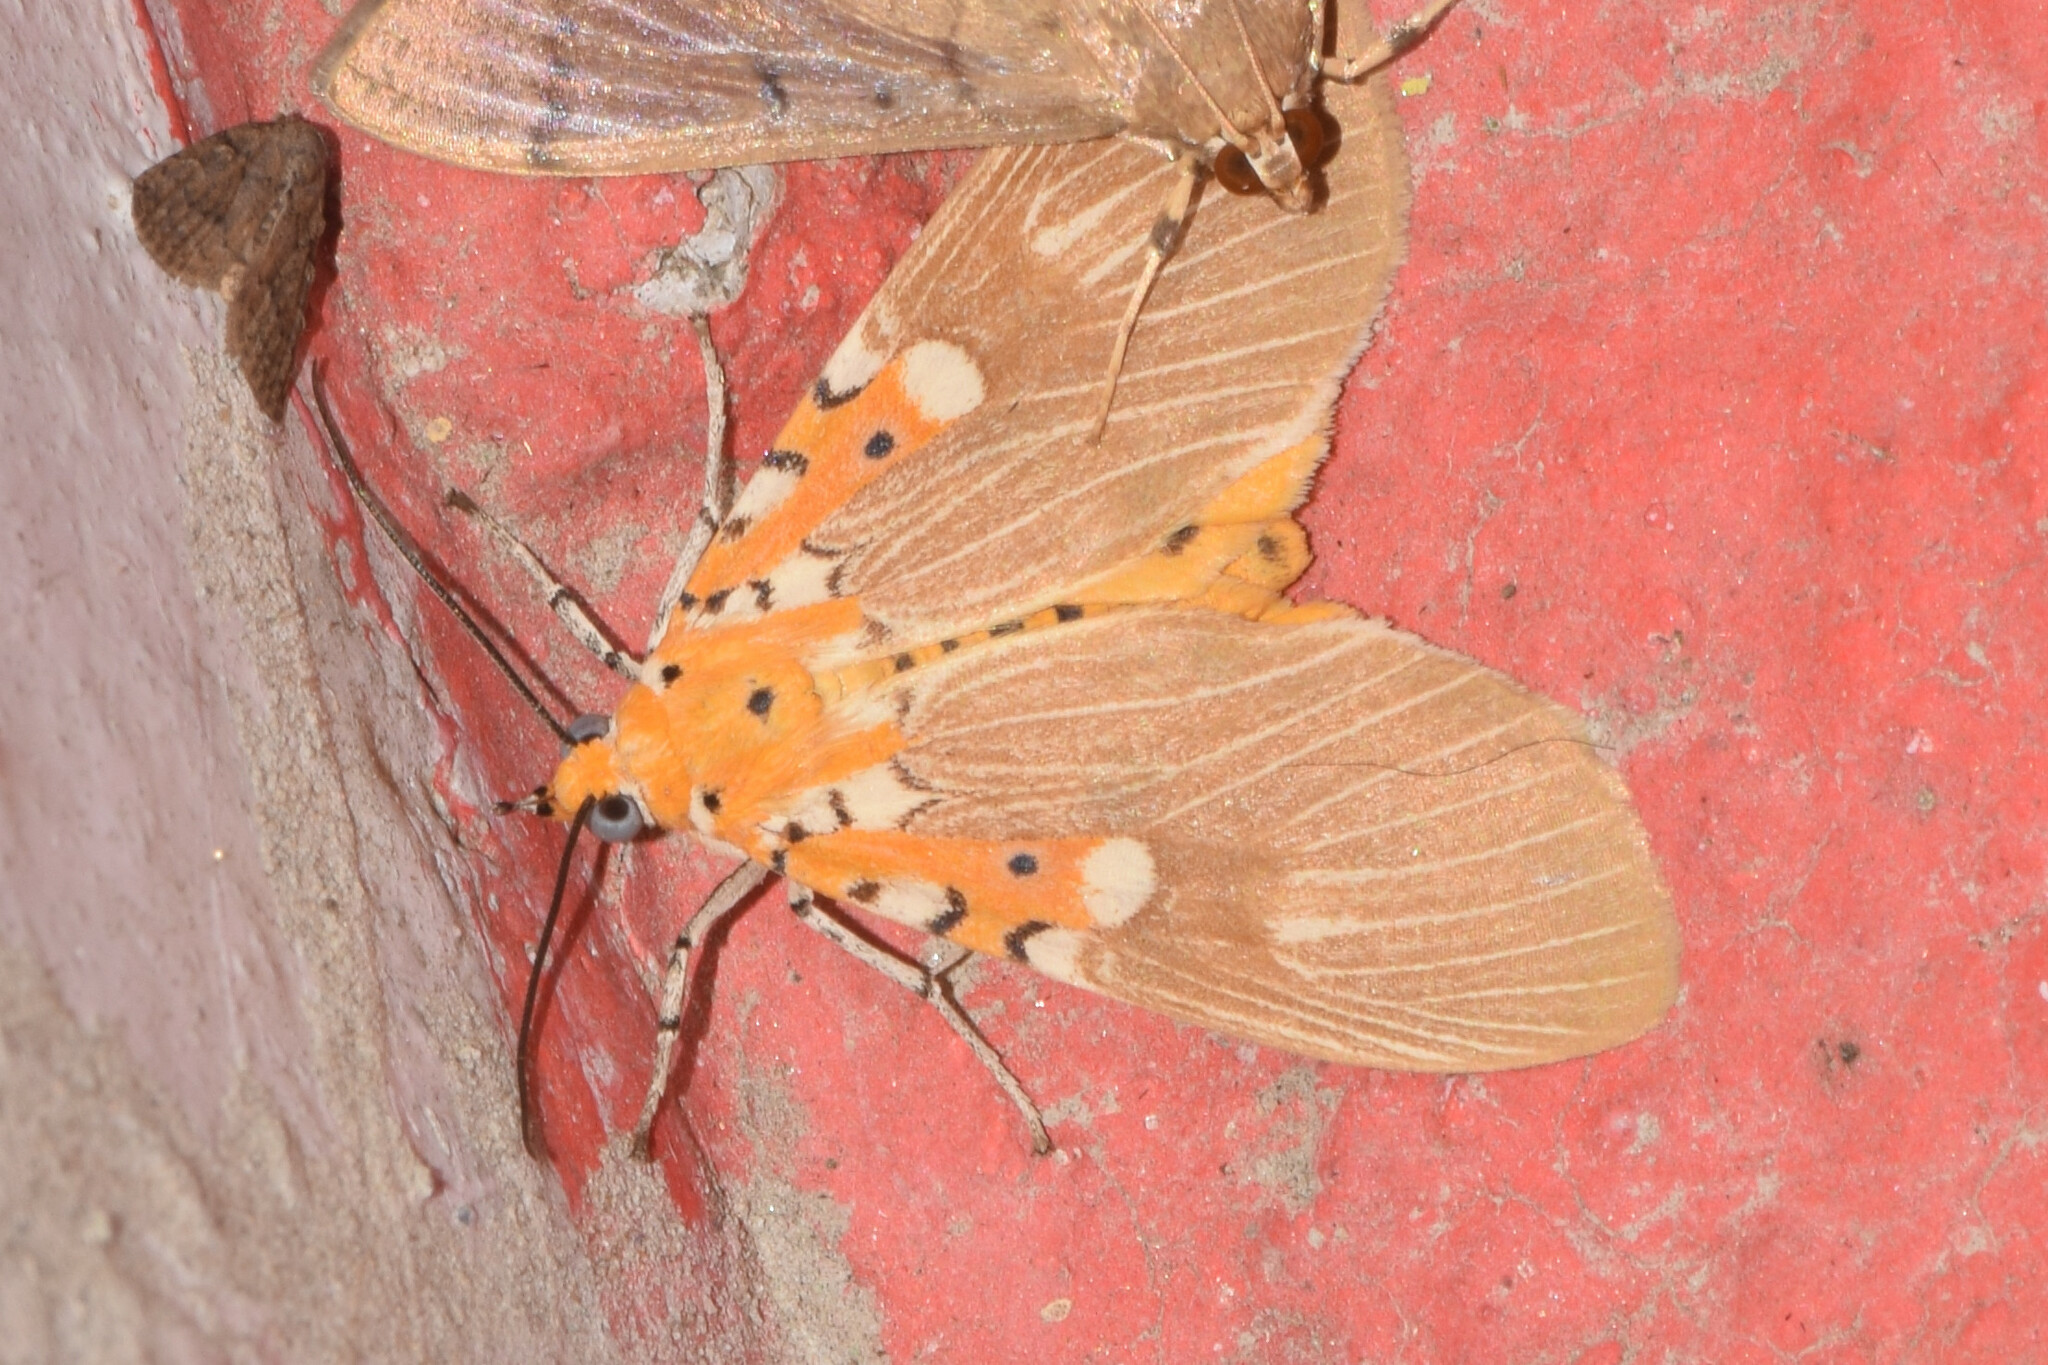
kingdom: Animalia
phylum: Arthropoda
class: Insecta
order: Lepidoptera
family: Erebidae
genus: Asota
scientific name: Asota ficus
